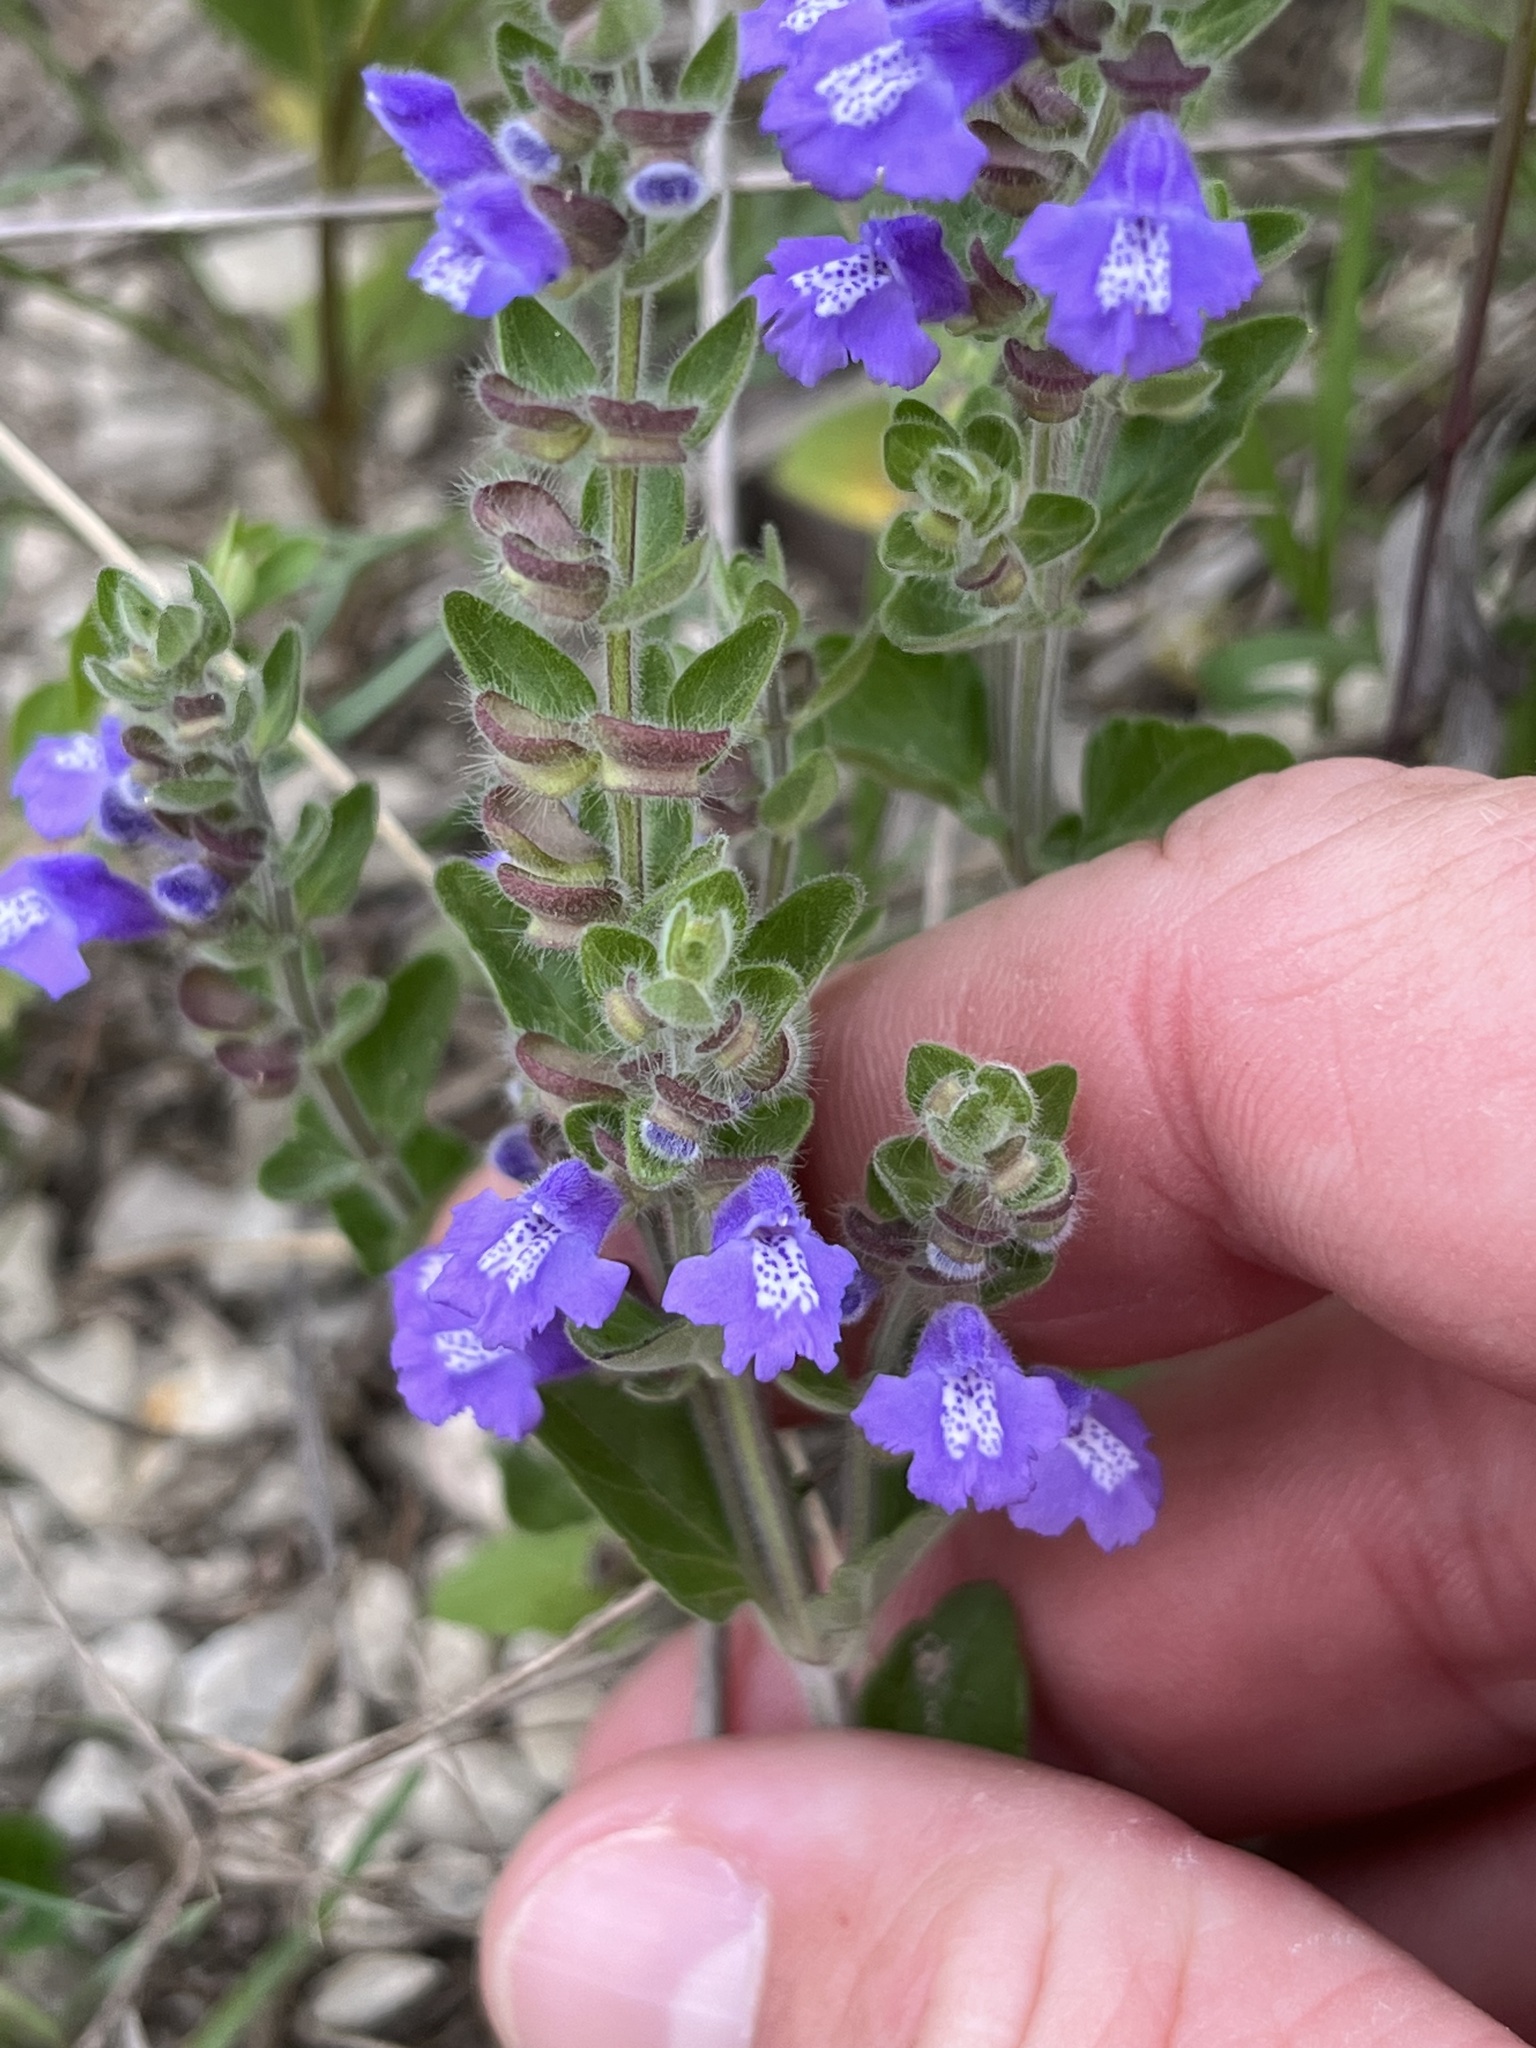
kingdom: Plantae
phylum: Tracheophyta
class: Magnoliopsida
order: Lamiales
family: Lamiaceae
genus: Scutellaria
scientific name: Scutellaria drummondii
